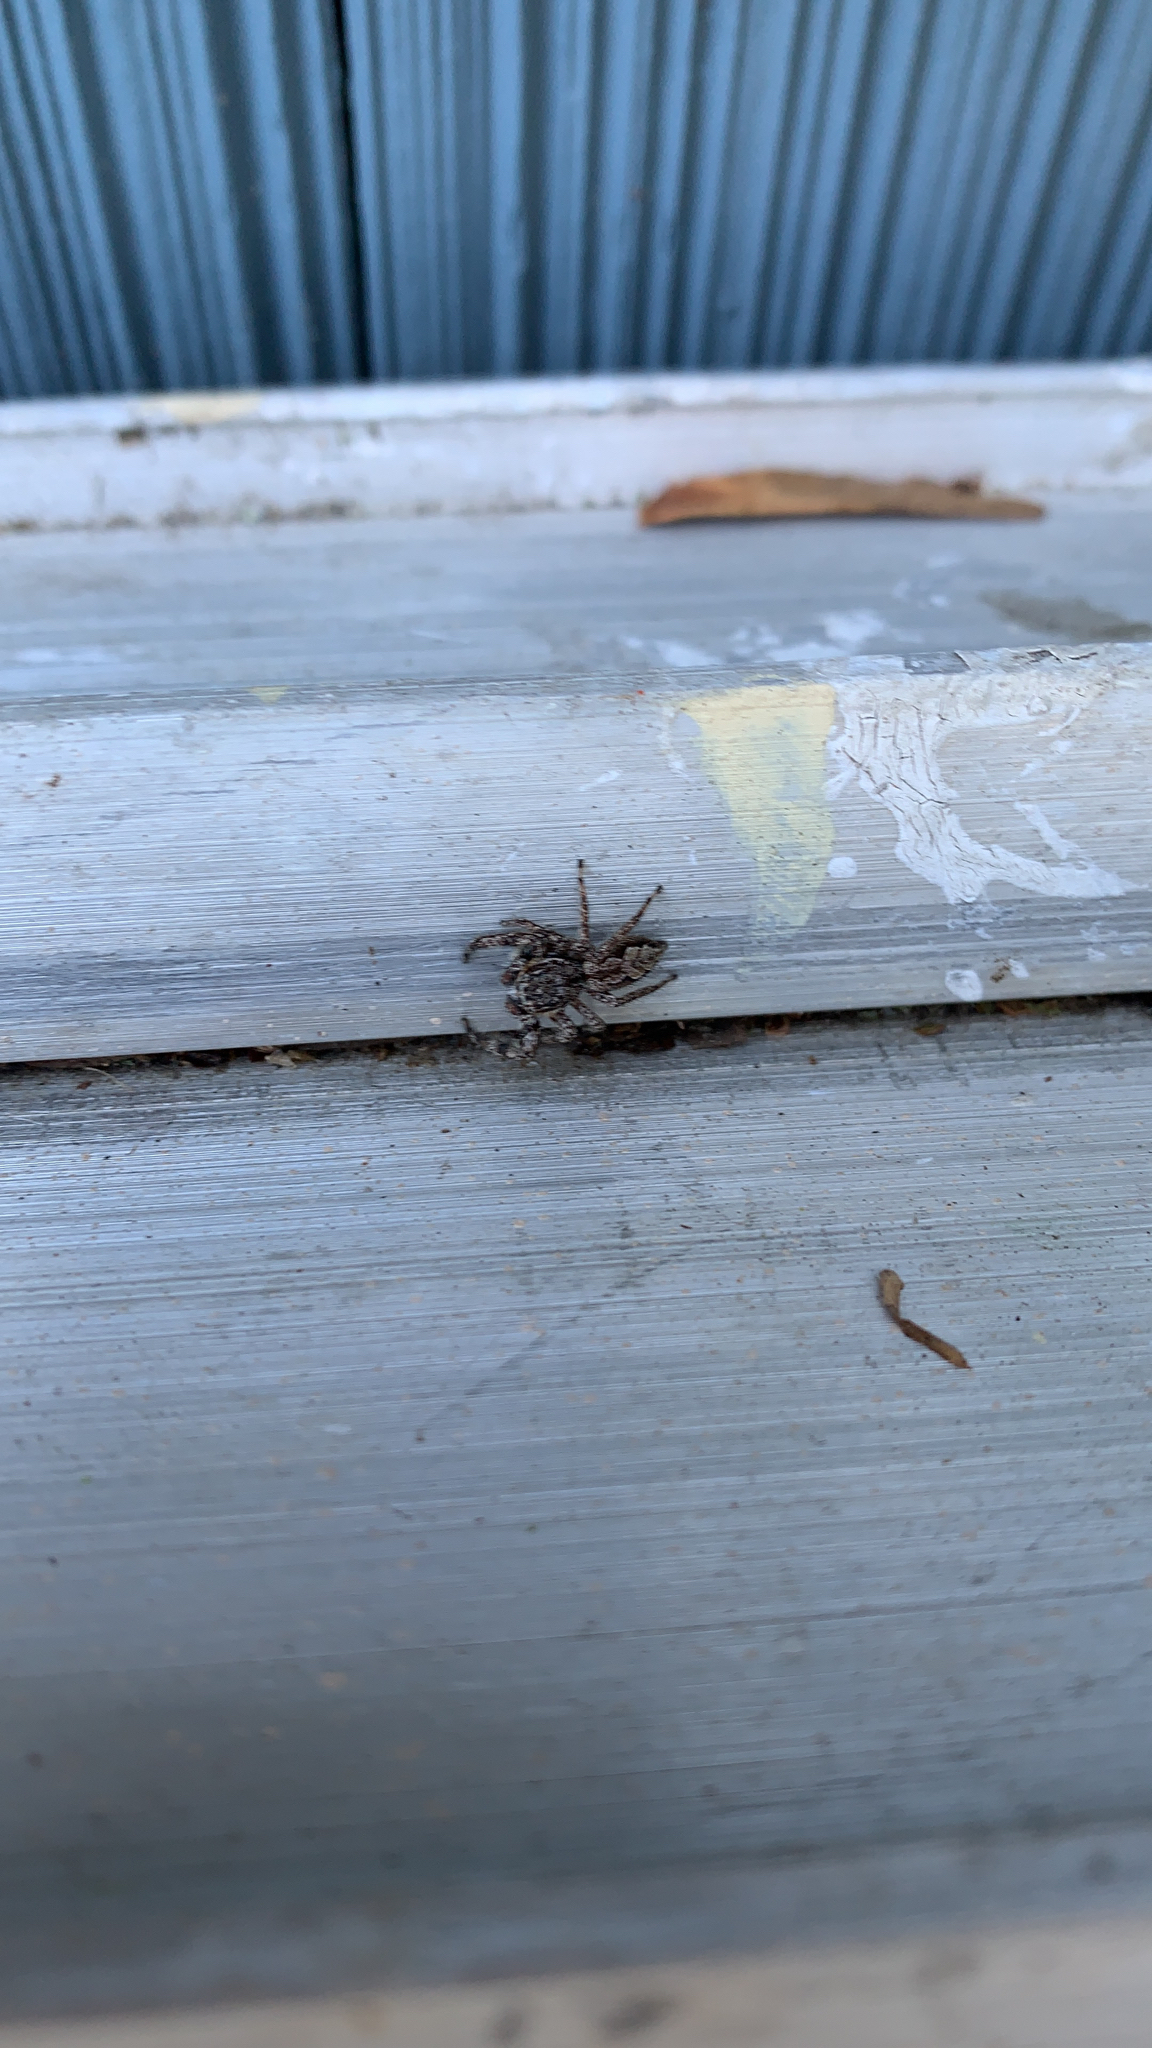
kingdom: Animalia
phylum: Arthropoda
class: Arachnida
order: Araneae
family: Salticidae
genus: Platycryptus
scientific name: Platycryptus undatus
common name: Tan jumping spider
